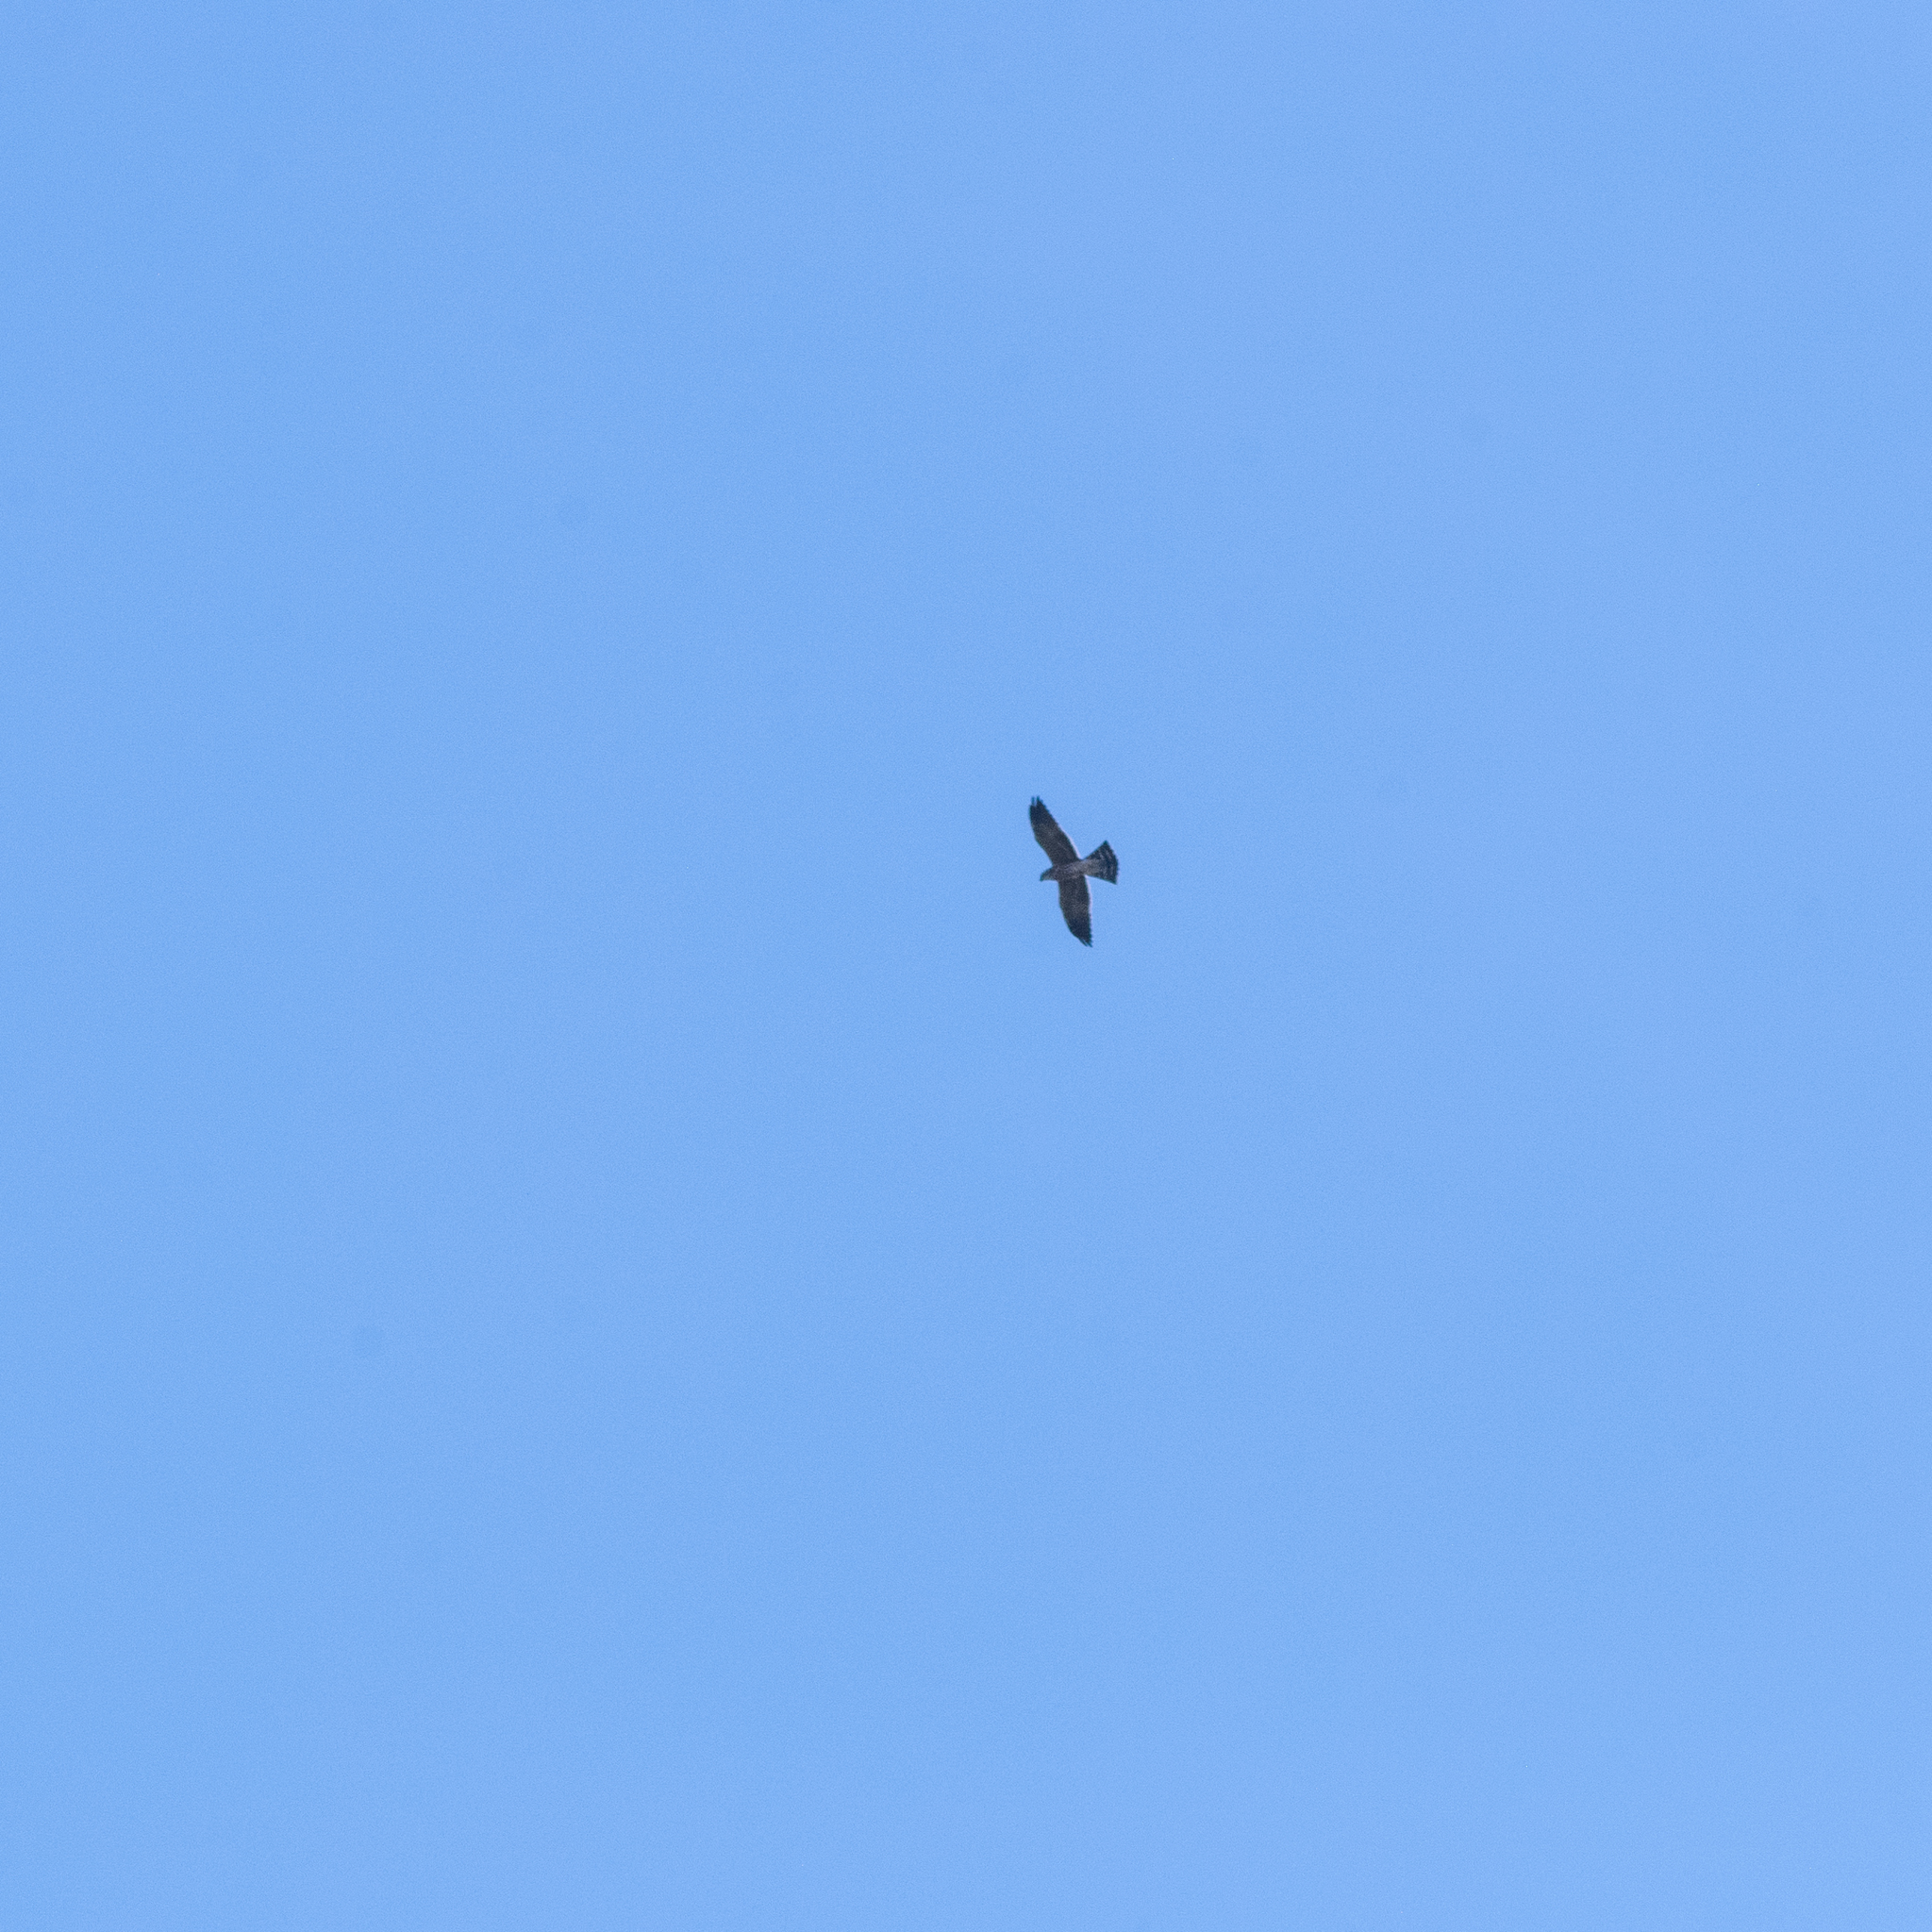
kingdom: Animalia
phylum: Chordata
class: Aves
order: Accipitriformes
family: Accipitridae
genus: Ictinia
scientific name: Ictinia mississippiensis
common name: Mississippi kite
